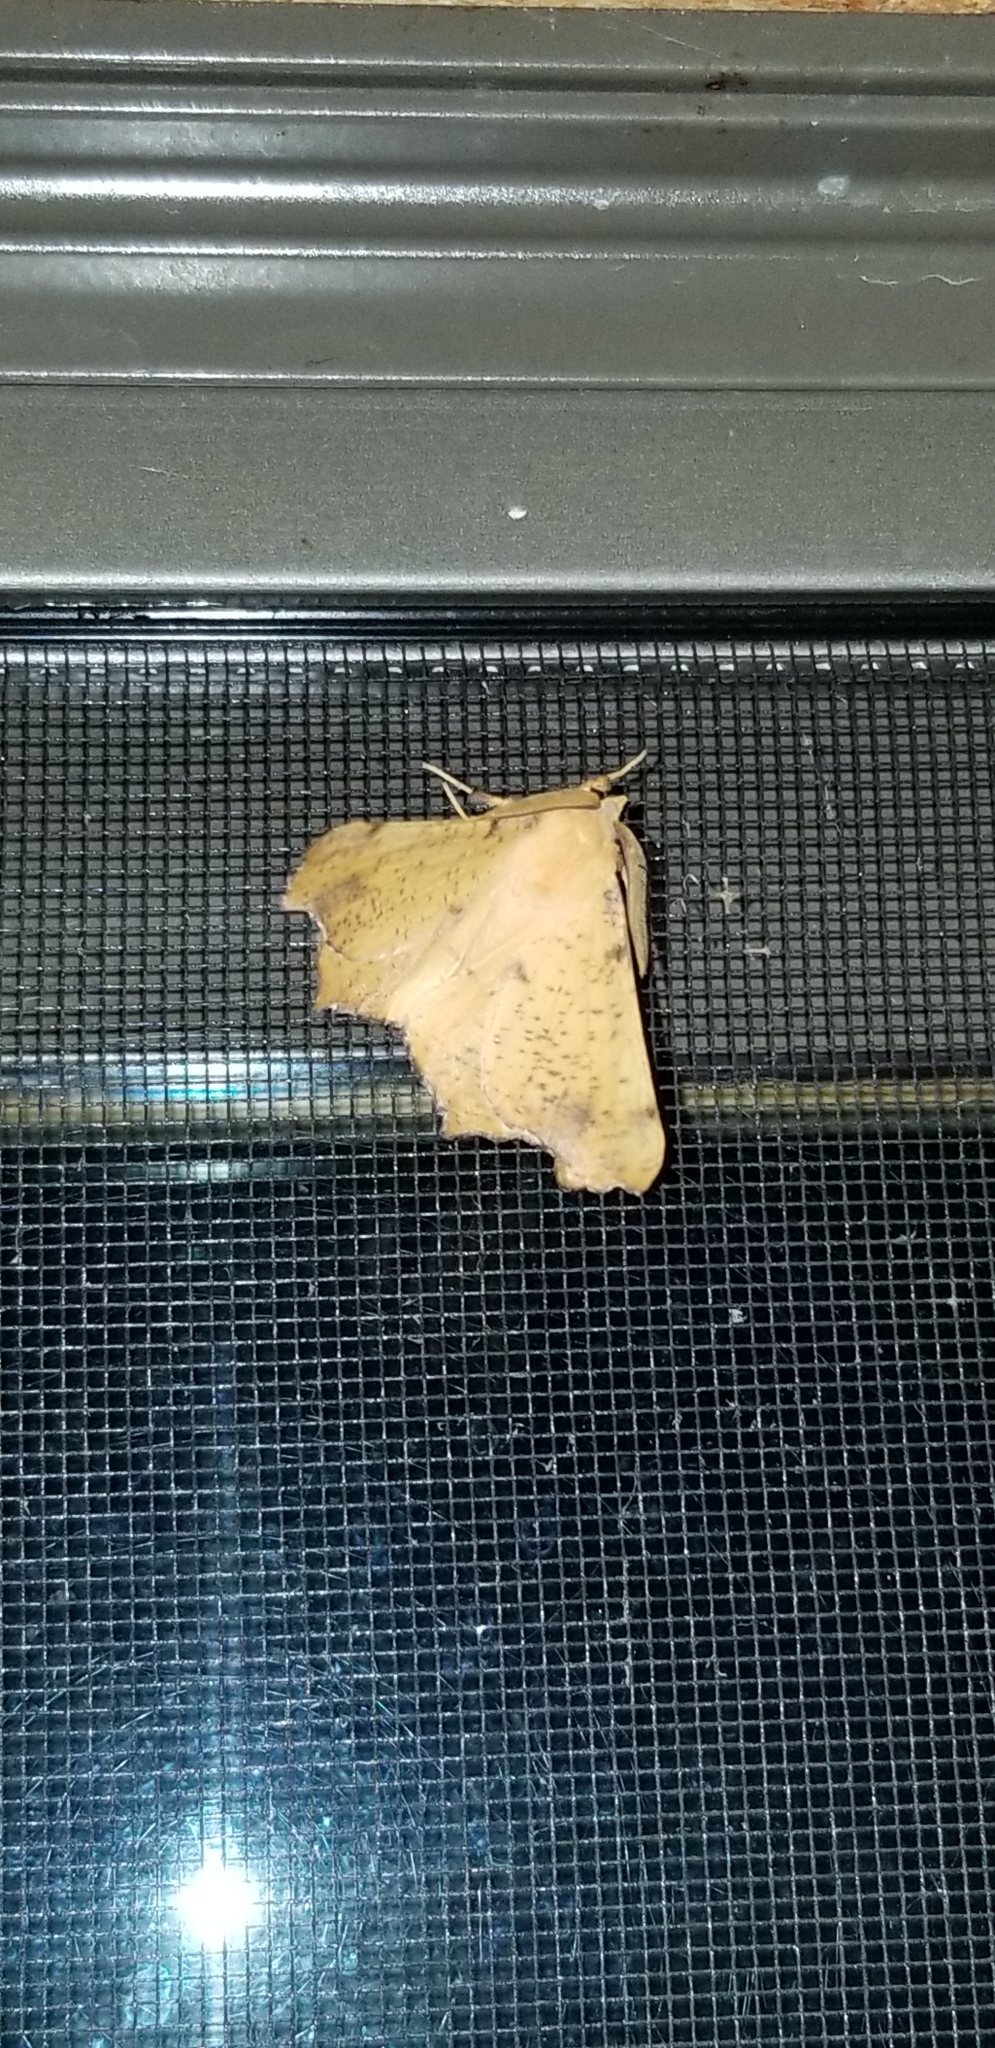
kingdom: Animalia
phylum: Arthropoda
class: Insecta
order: Lepidoptera
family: Geometridae
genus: Ennomos
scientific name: Ennomos magnaria
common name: Maple spanworm
